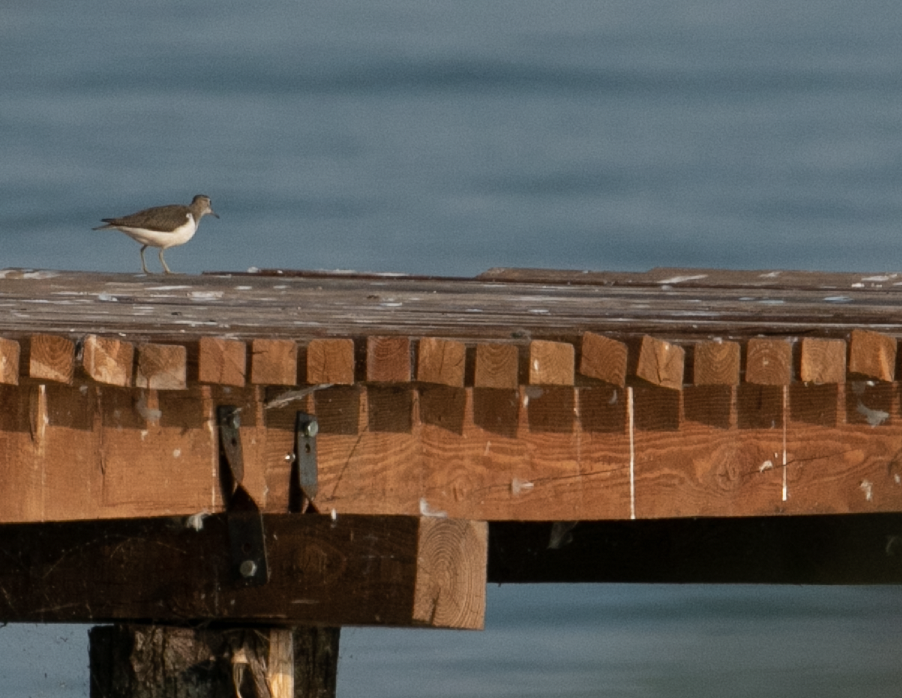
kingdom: Animalia
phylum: Chordata
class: Aves
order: Charadriiformes
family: Scolopacidae
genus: Actitis
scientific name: Actitis hypoleucos
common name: Common sandpiper
